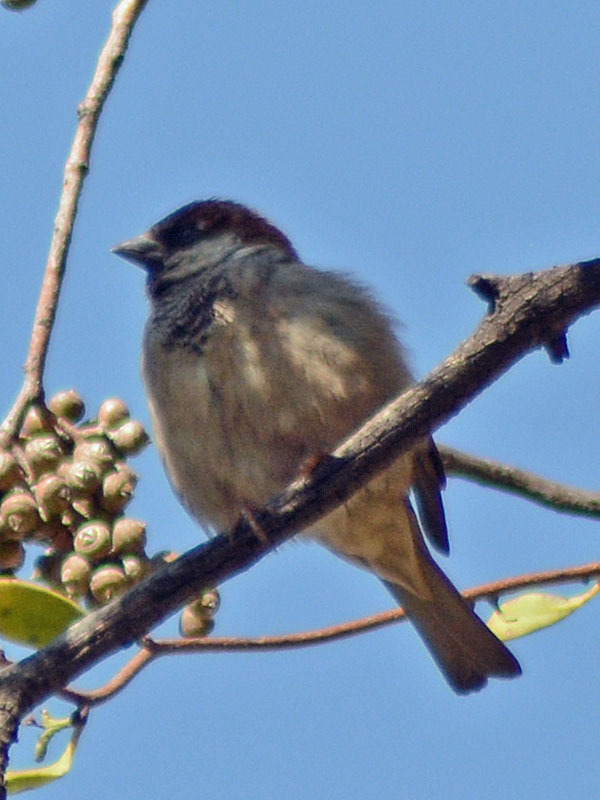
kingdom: Animalia
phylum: Chordata
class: Aves
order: Passeriformes
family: Passeridae
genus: Passer
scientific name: Passer domesticus
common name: House sparrow
